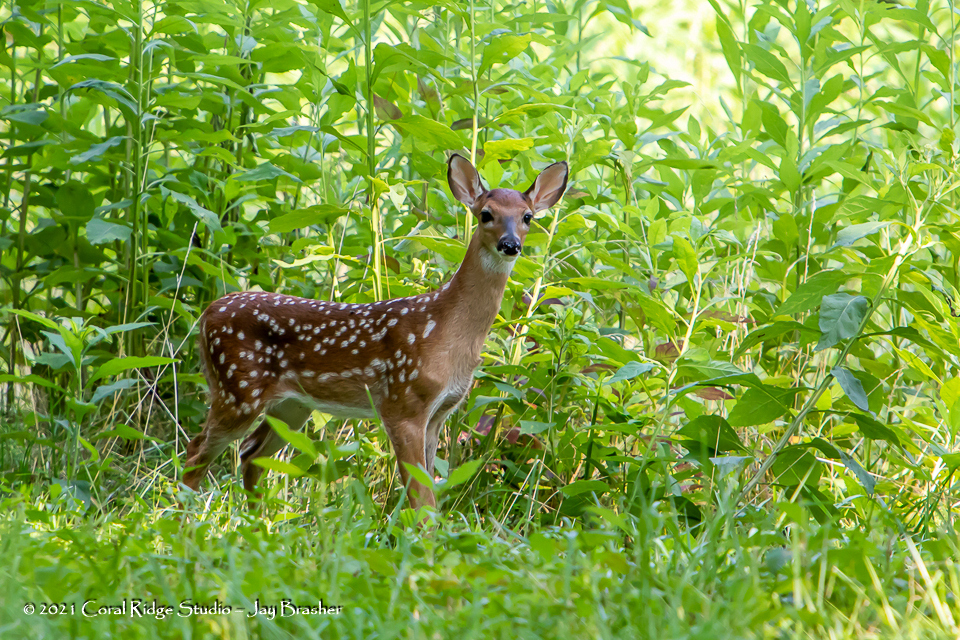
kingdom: Animalia
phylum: Chordata
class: Mammalia
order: Artiodactyla
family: Cervidae
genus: Odocoileus
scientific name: Odocoileus virginianus
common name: White-tailed deer
